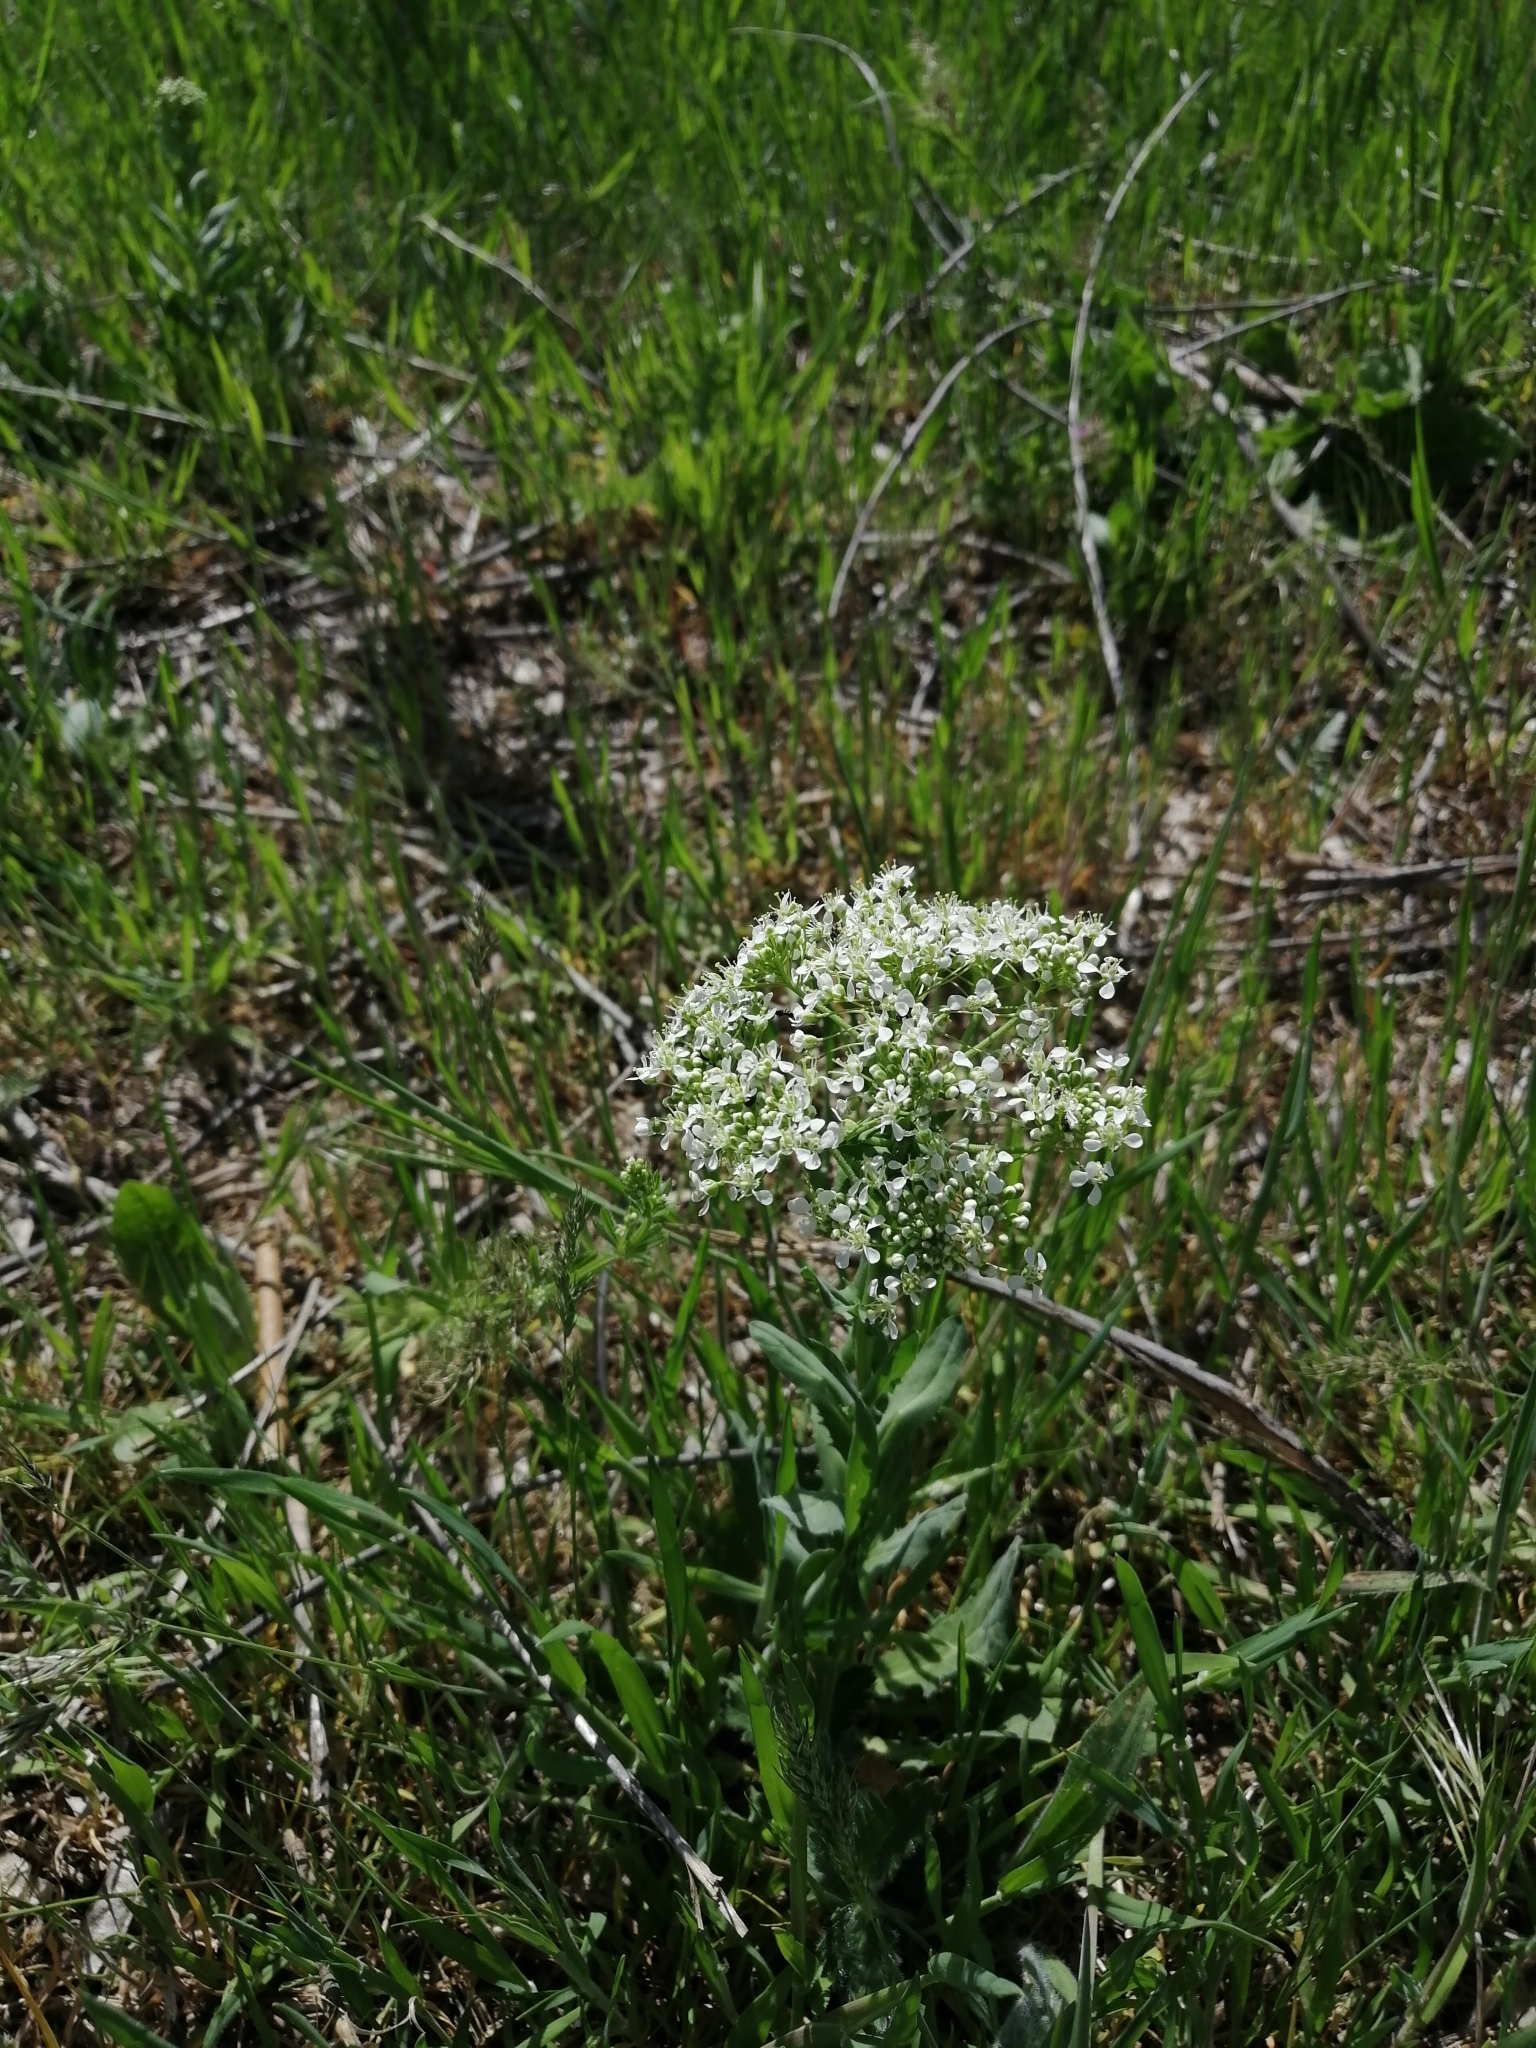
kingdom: Plantae
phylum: Tracheophyta
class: Magnoliopsida
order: Brassicales
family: Brassicaceae
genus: Lepidium
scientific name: Lepidium draba
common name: Hoary cress
